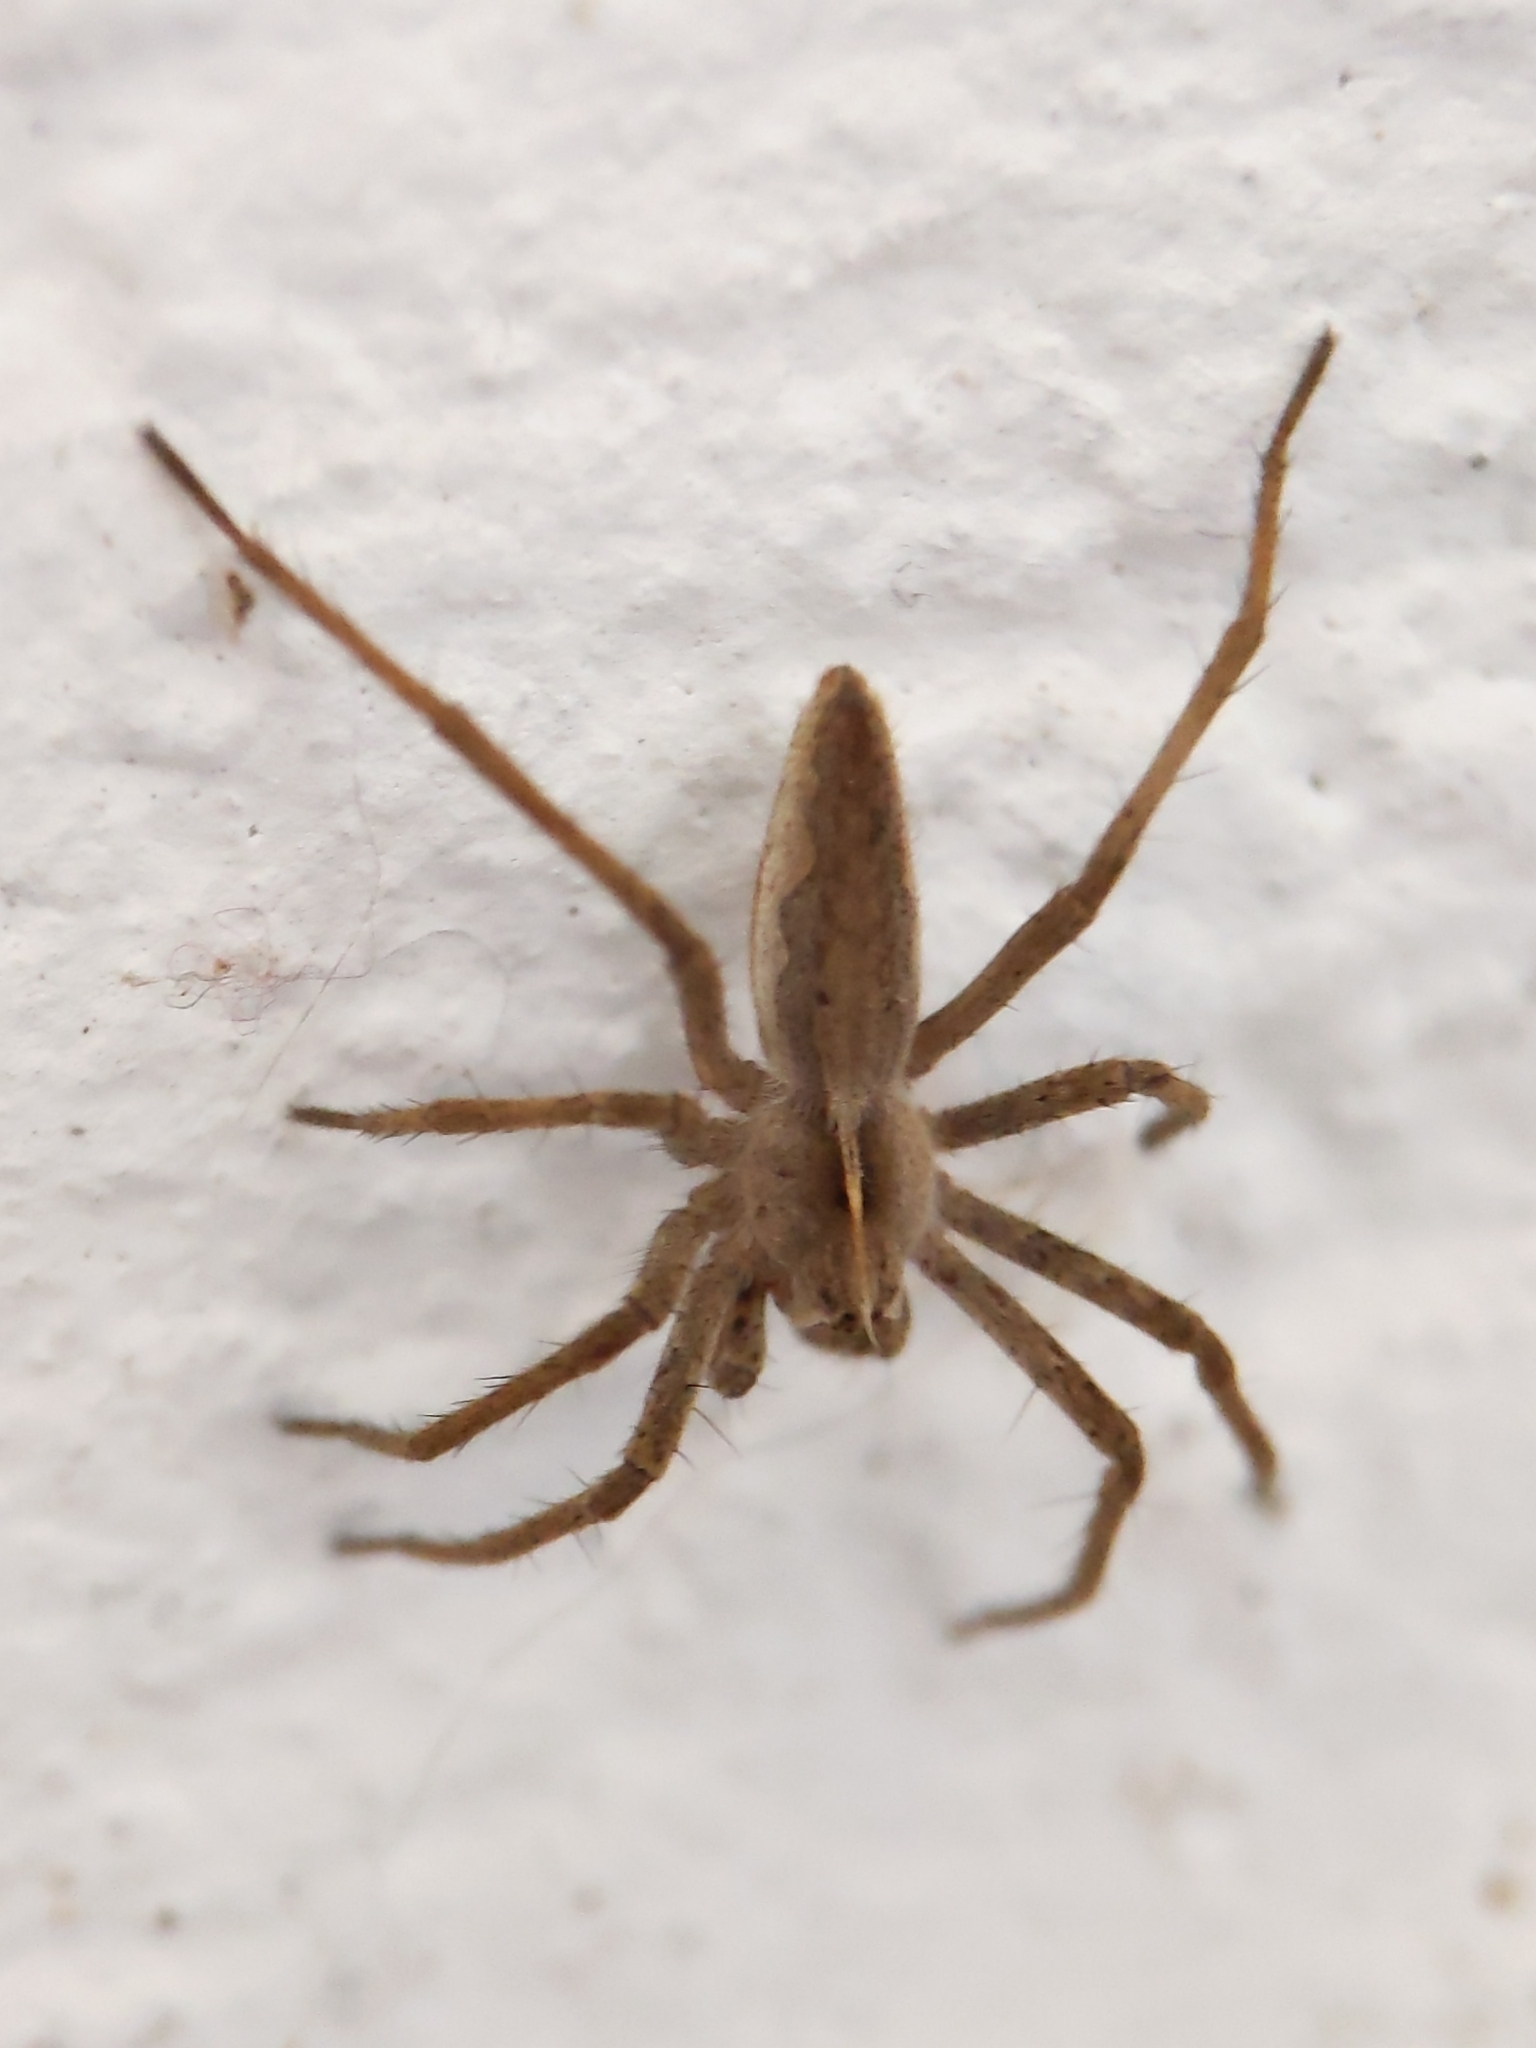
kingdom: Animalia
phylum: Arthropoda
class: Arachnida
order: Araneae
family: Pisauridae
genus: Pisaura
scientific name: Pisaura mirabilis
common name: Tent spider
